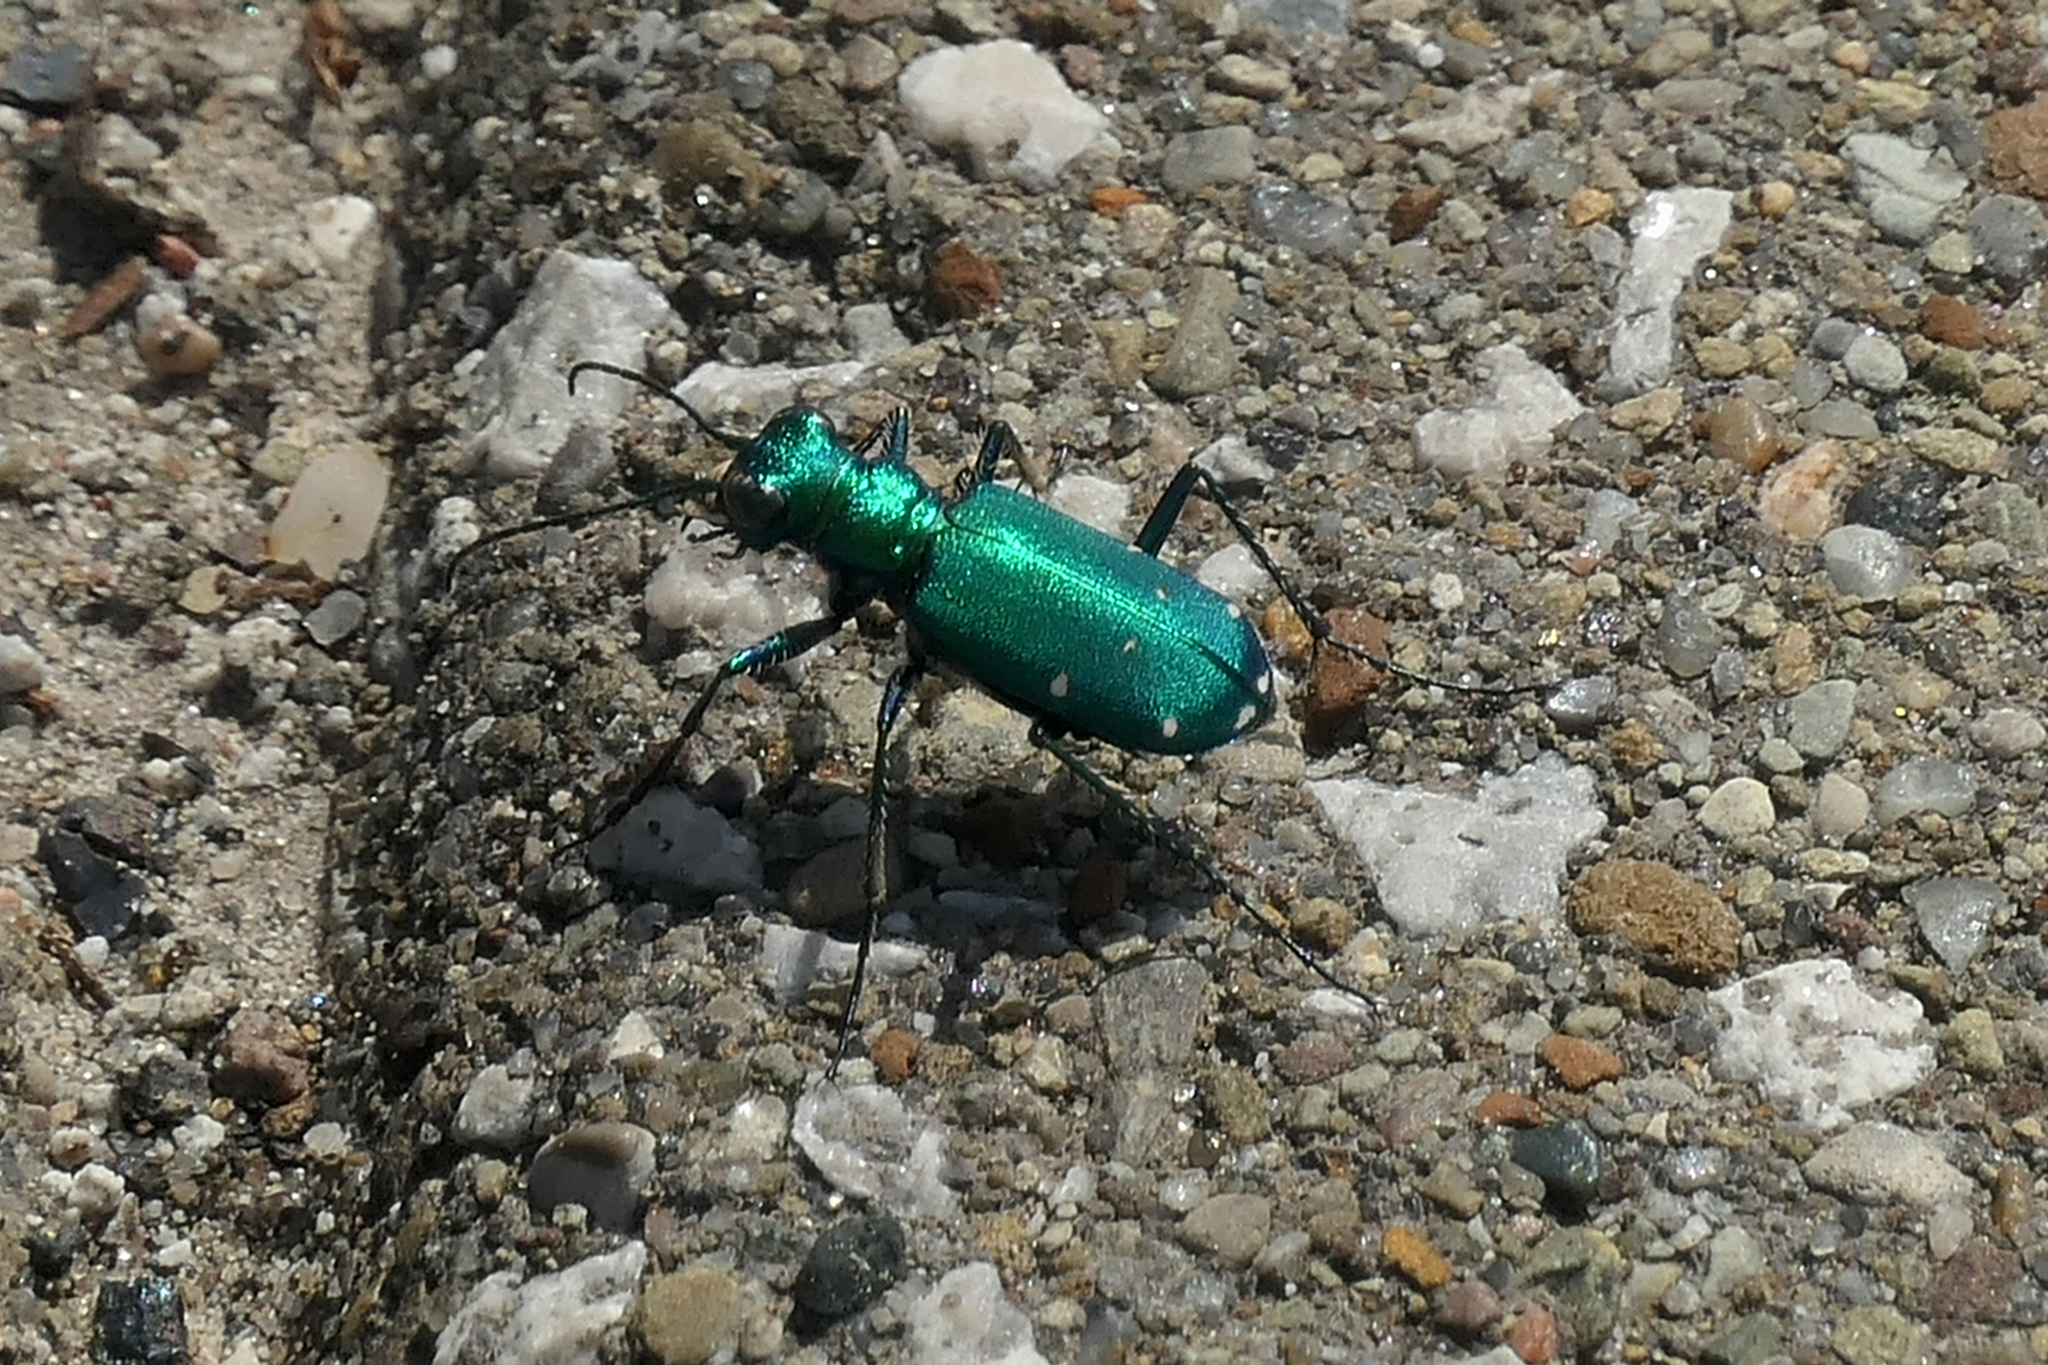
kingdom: Animalia
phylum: Arthropoda
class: Insecta
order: Coleoptera
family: Carabidae
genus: Cicindela
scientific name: Cicindela sexguttata
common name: Six-spotted tiger beetle
